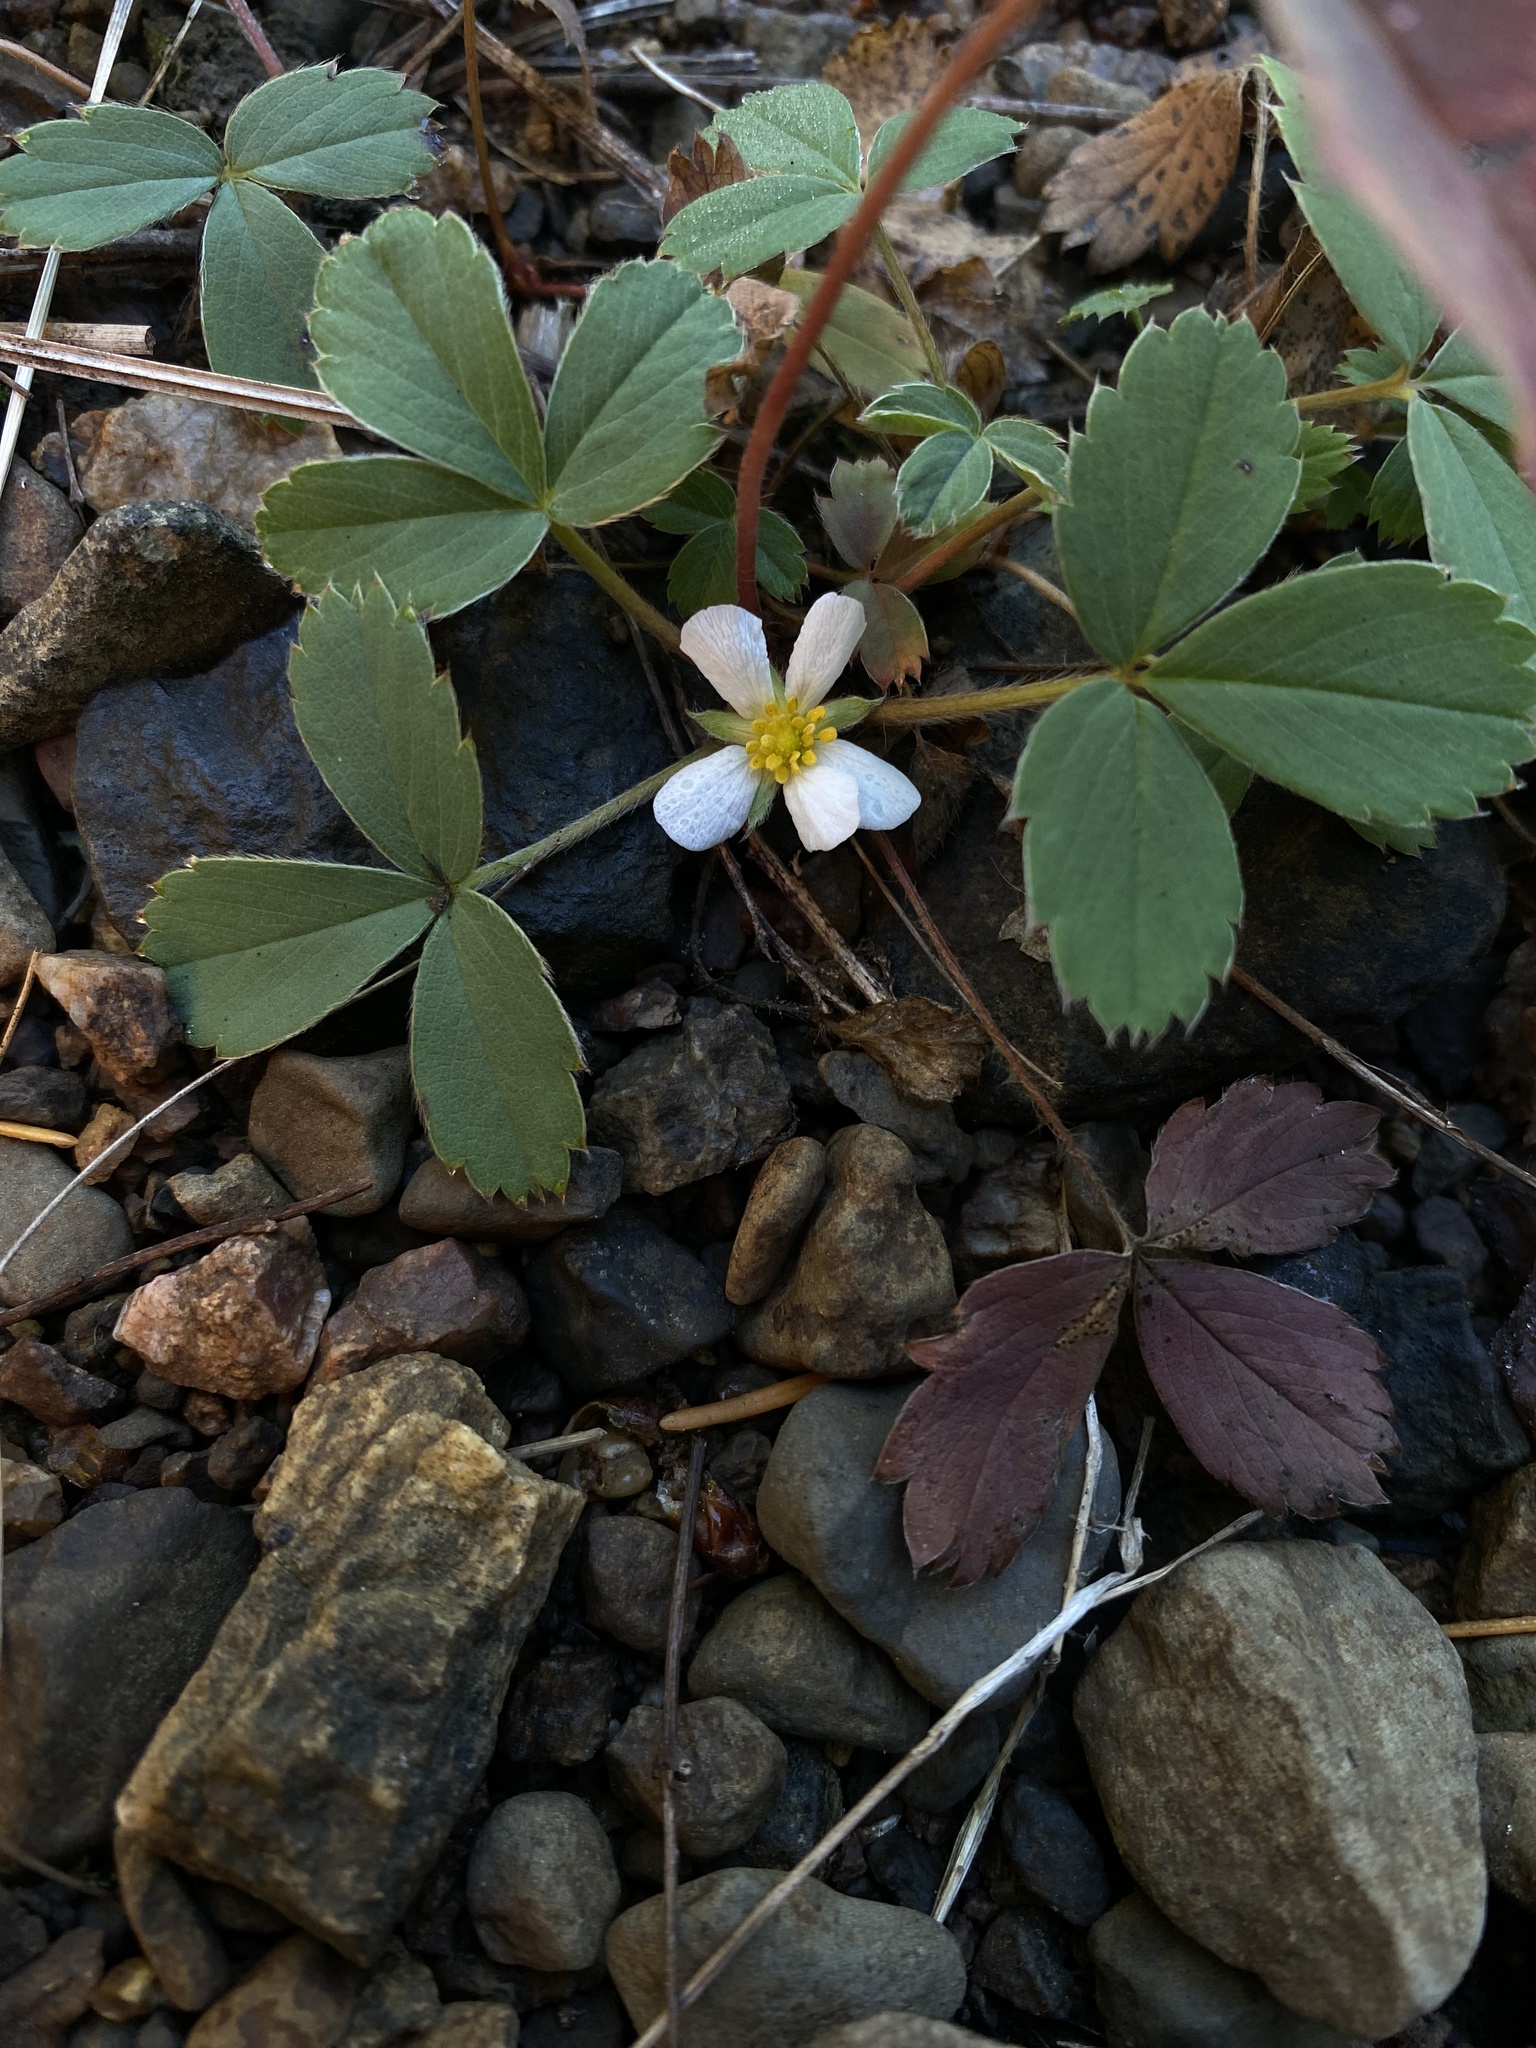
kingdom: Plantae
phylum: Tracheophyta
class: Magnoliopsida
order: Rosales
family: Rosaceae
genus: Fragaria
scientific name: Fragaria virginiana
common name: Thickleaved wild strawberry
